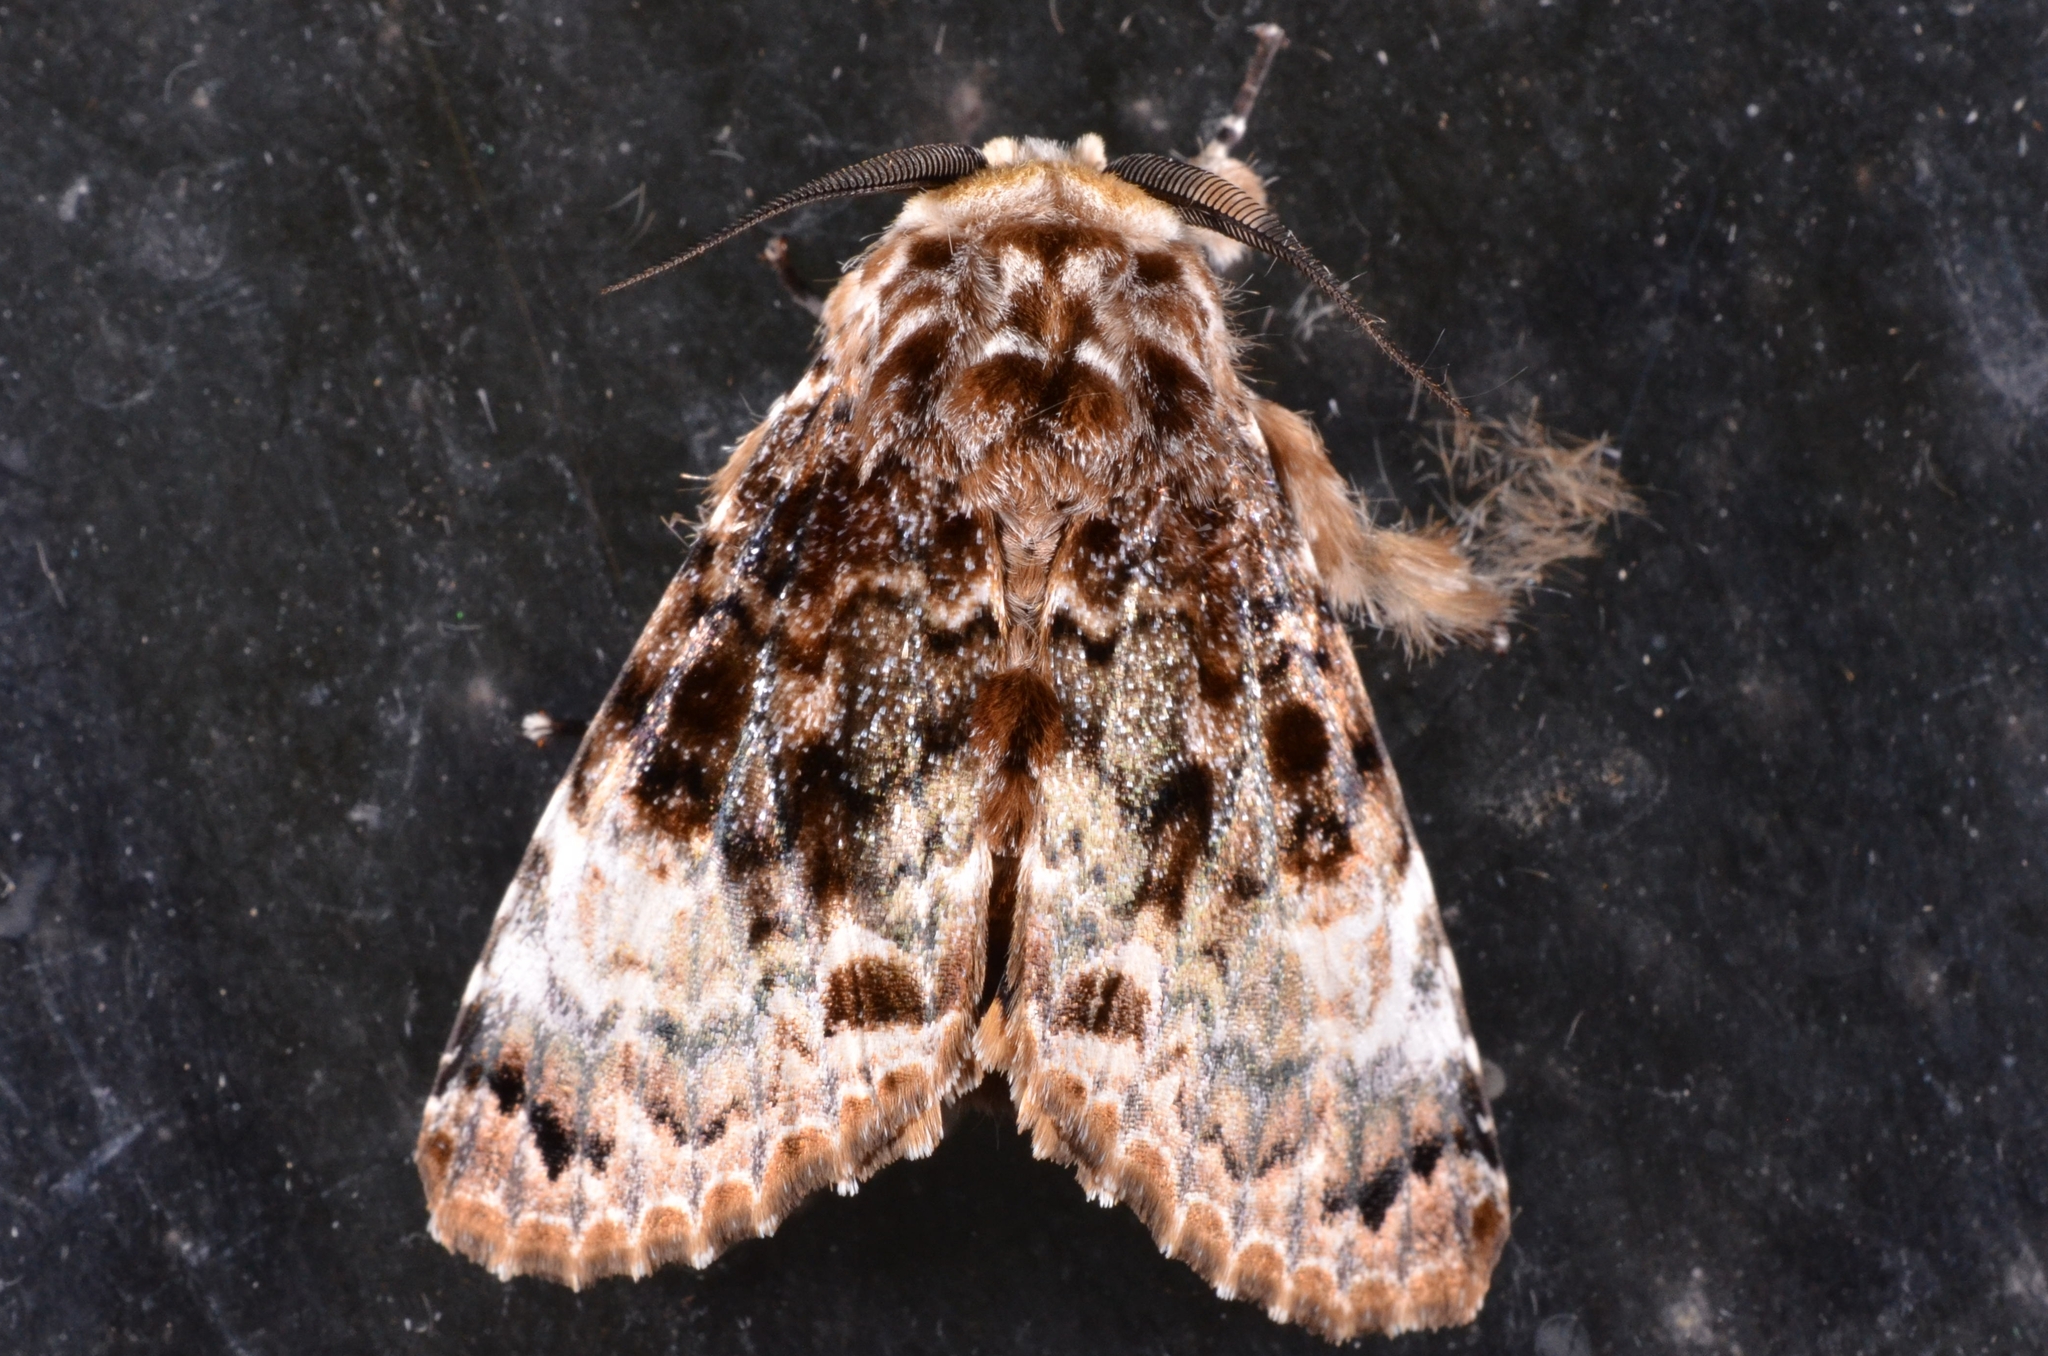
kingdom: Animalia
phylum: Arthropoda
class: Insecta
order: Lepidoptera
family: Noctuidae
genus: Anepholcia
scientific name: Anepholcia pygaria
